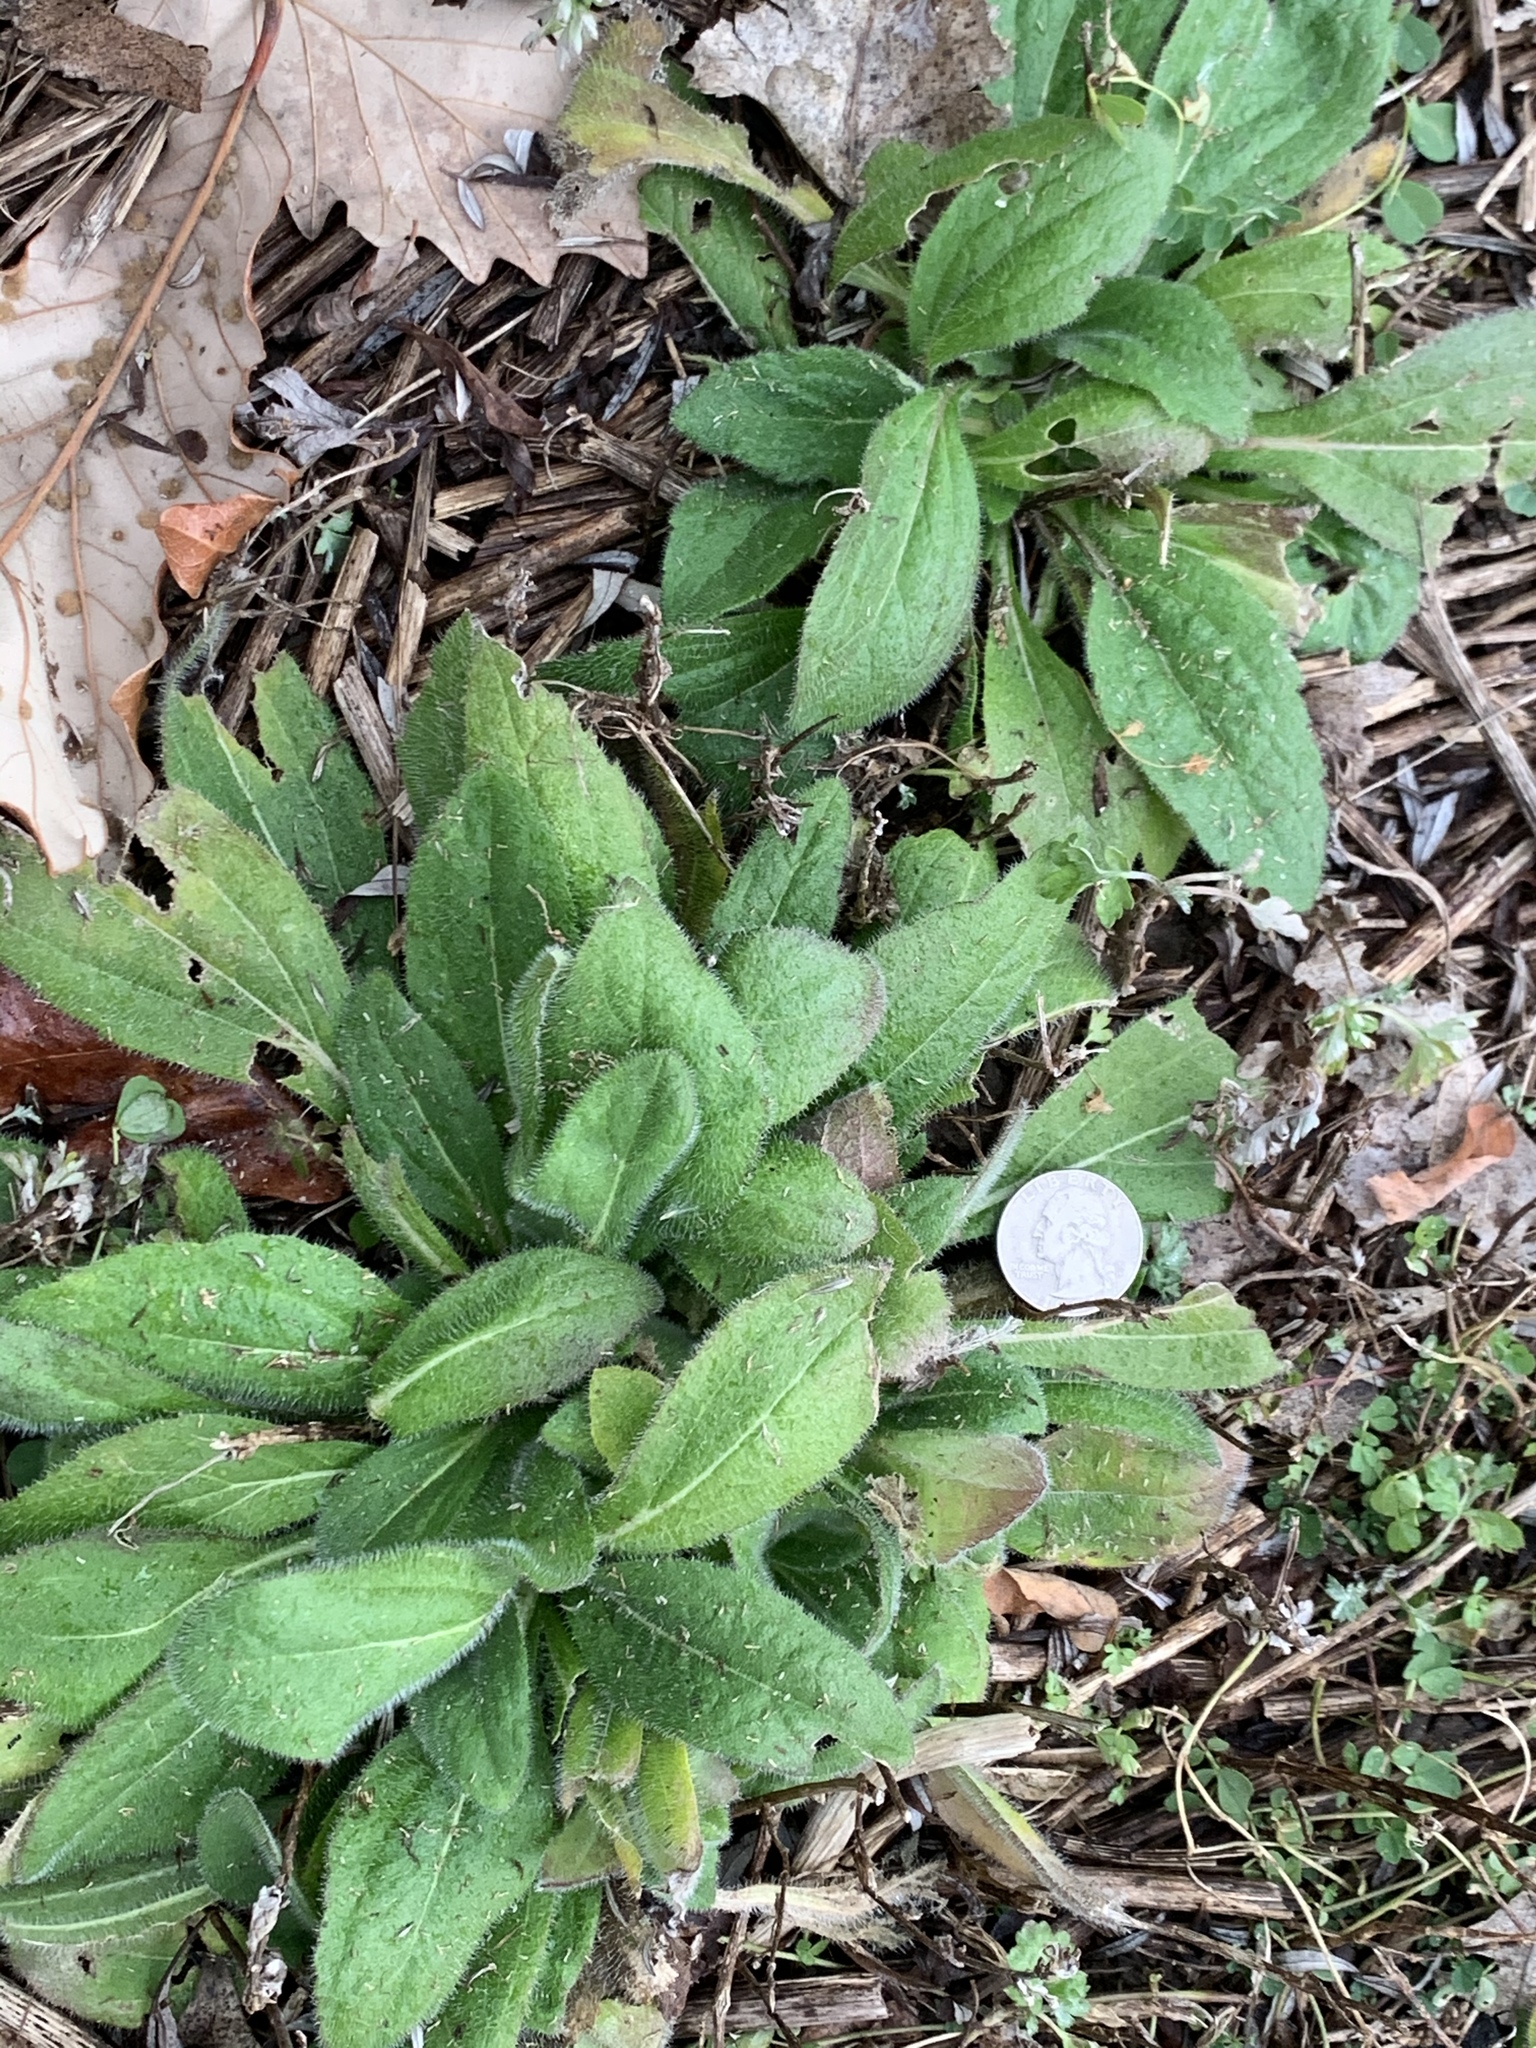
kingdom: Plantae
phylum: Tracheophyta
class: Magnoliopsida
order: Asterales
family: Asteraceae
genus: Rudbeckia
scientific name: Rudbeckia hirta
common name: Black-eyed-susan
